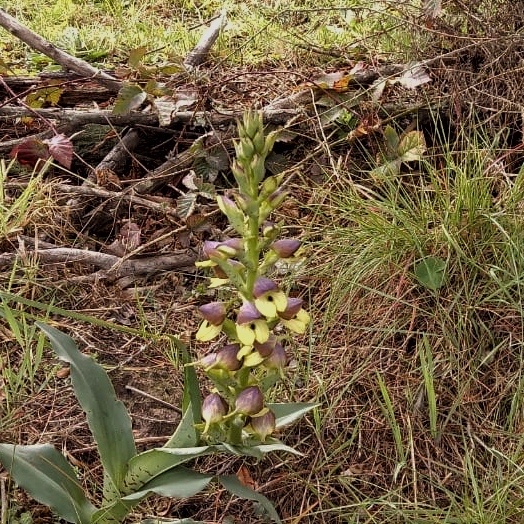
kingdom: Plantae
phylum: Tracheophyta
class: Liliopsida
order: Asparagales
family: Orchidaceae
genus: Disa
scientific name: Disa cornuta
